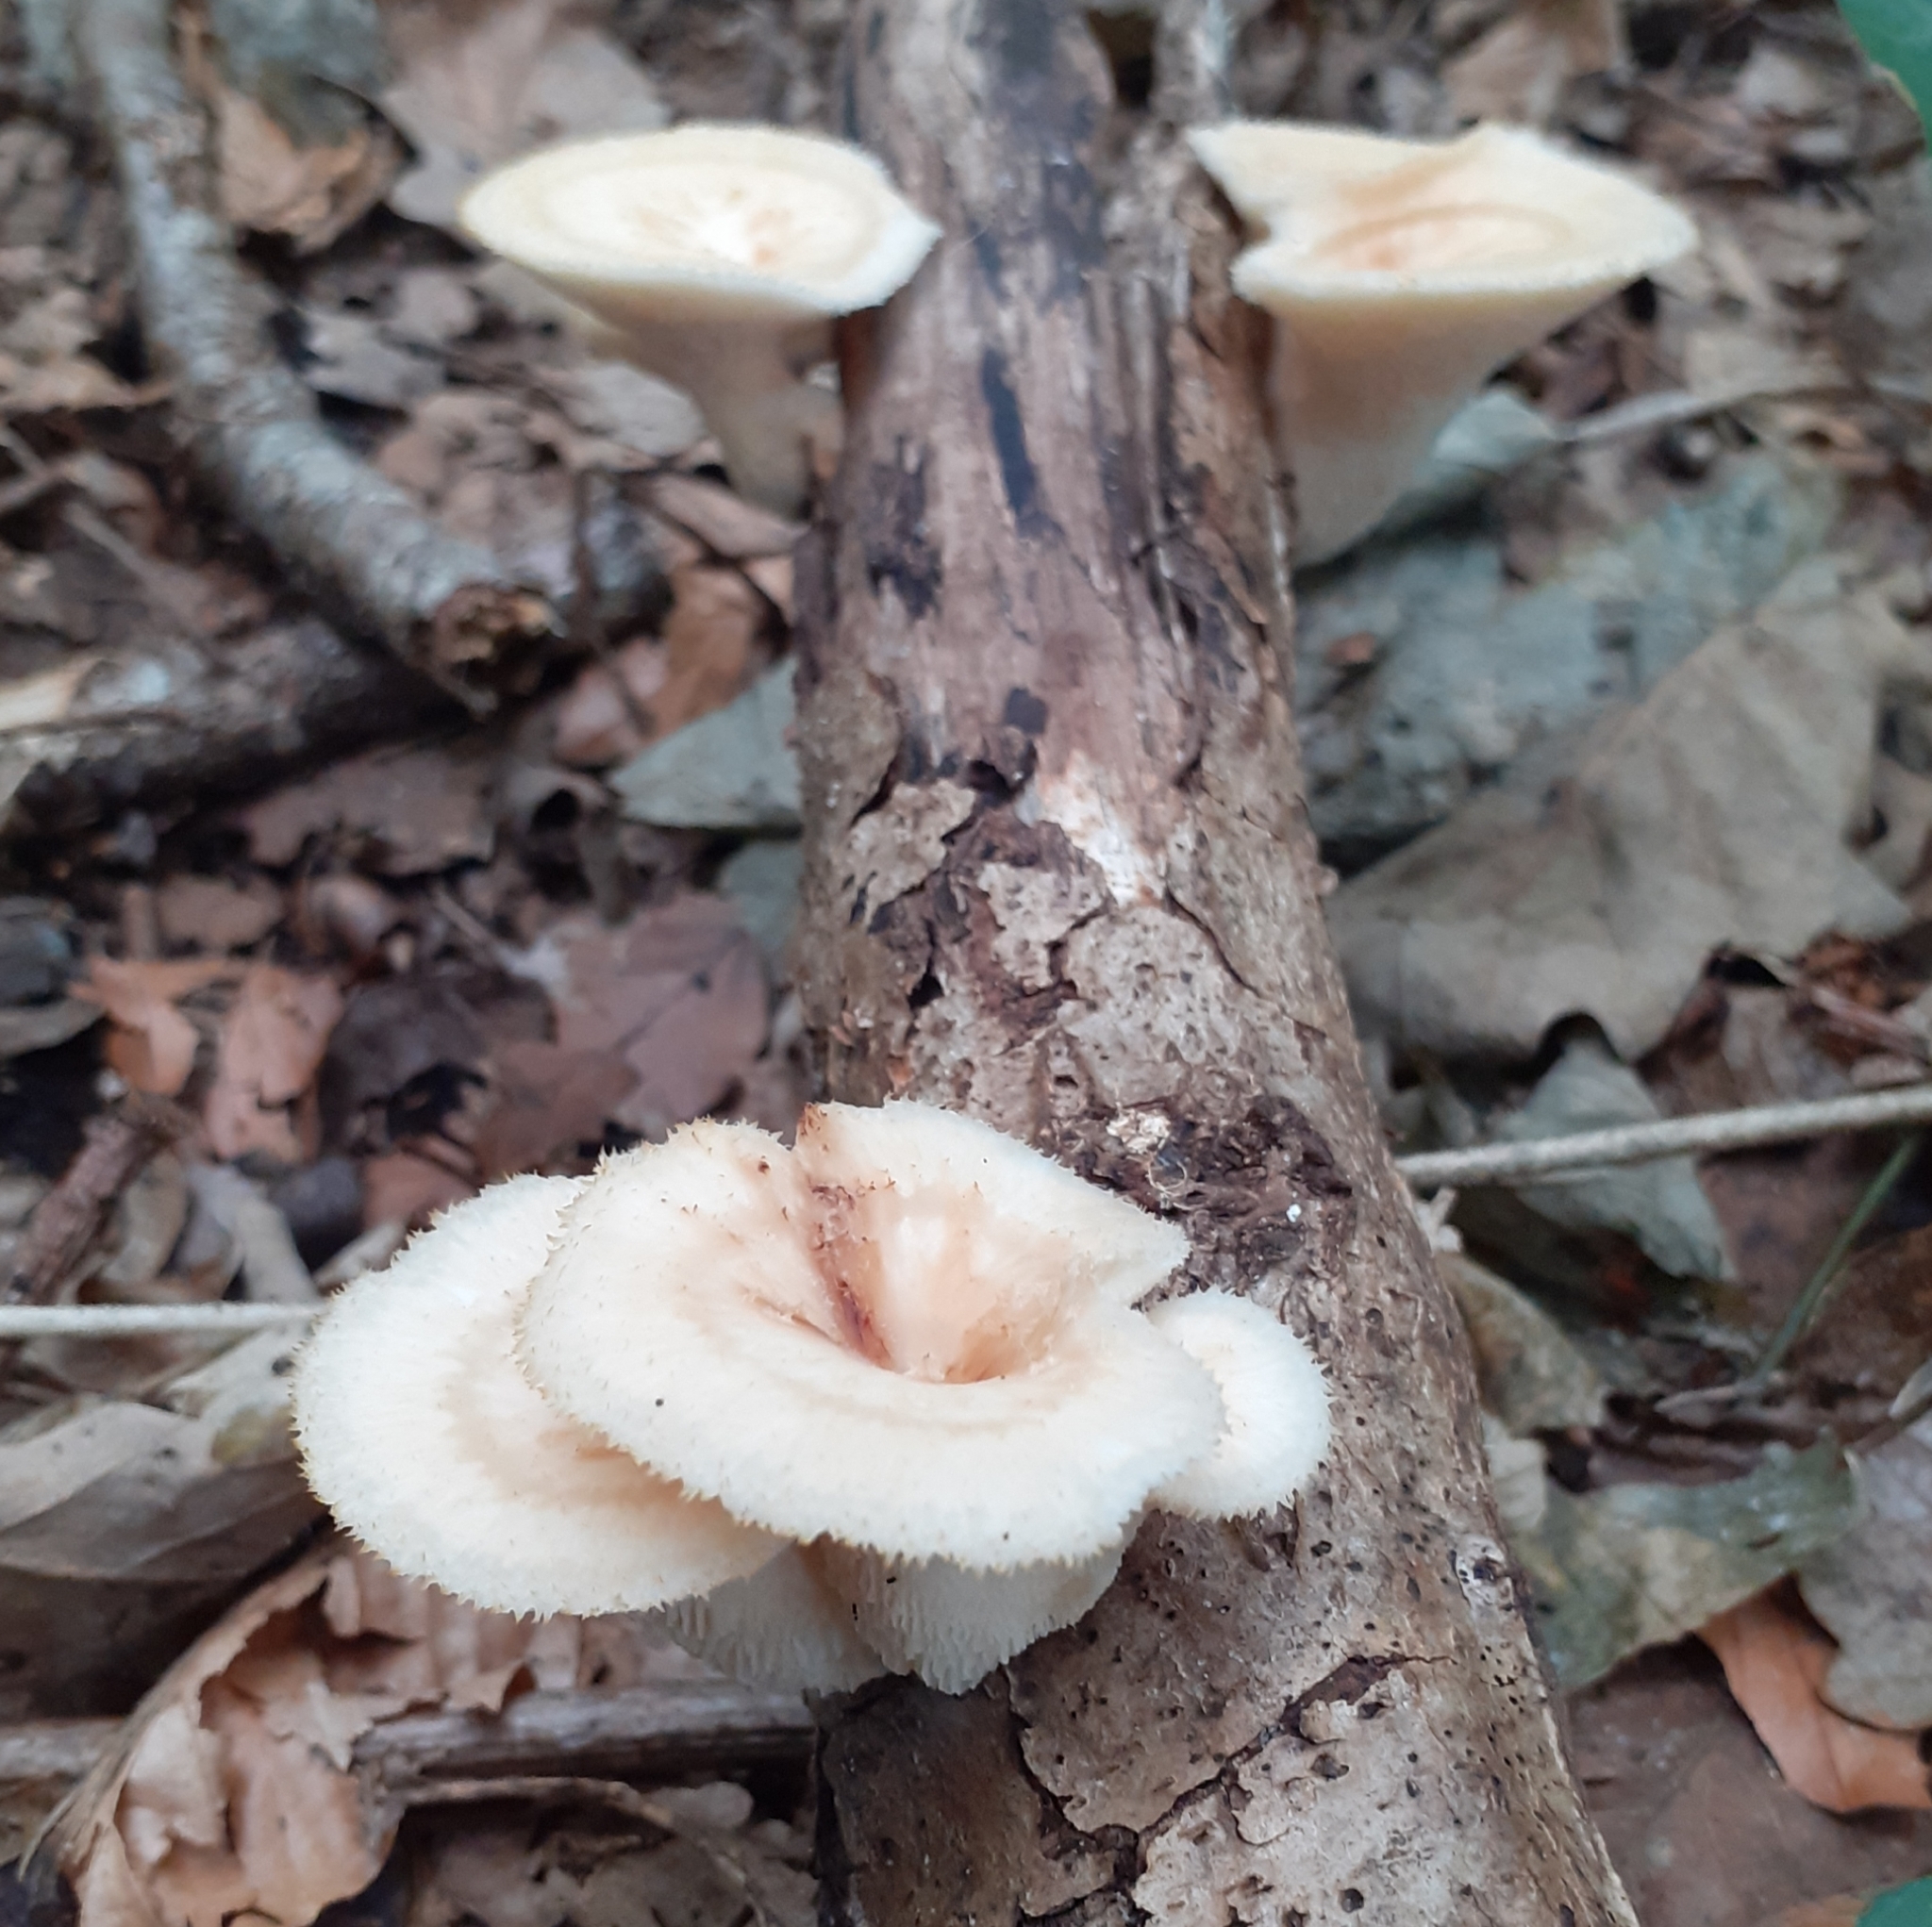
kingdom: Fungi
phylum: Basidiomycota
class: Agaricomycetes
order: Polyporales
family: Polyporaceae
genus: Lentinus
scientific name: Lentinus arcularius
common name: Spring polypore
